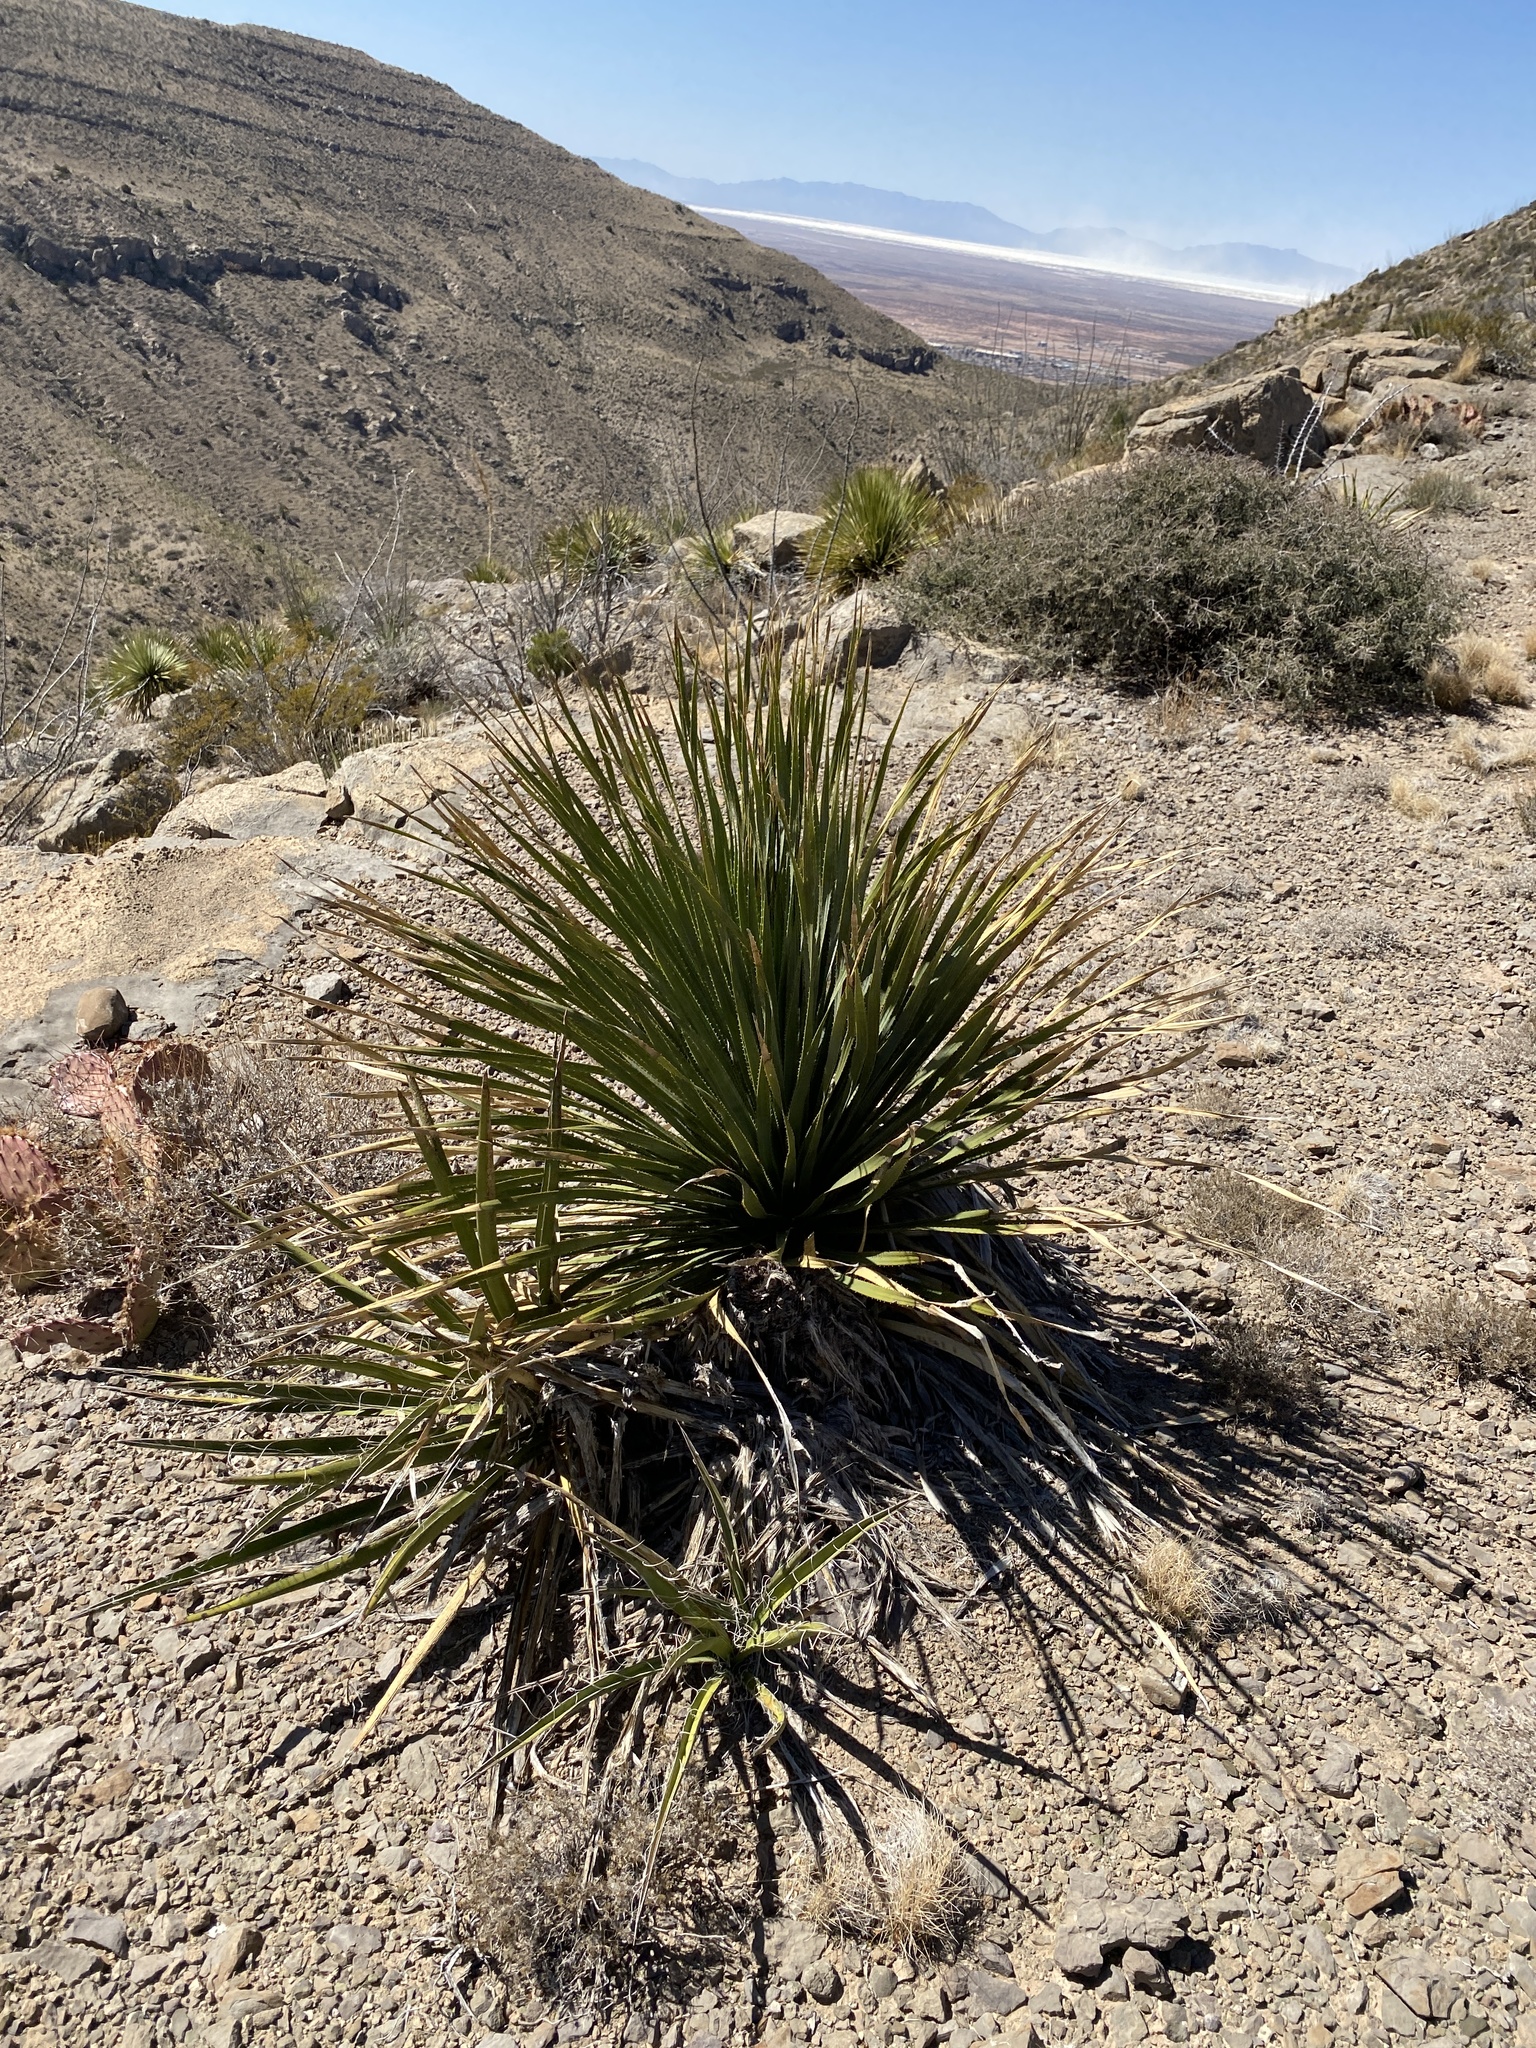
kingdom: Plantae
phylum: Tracheophyta
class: Liliopsida
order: Asparagales
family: Asparagaceae
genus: Dasylirion
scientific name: Dasylirion wheeleri
